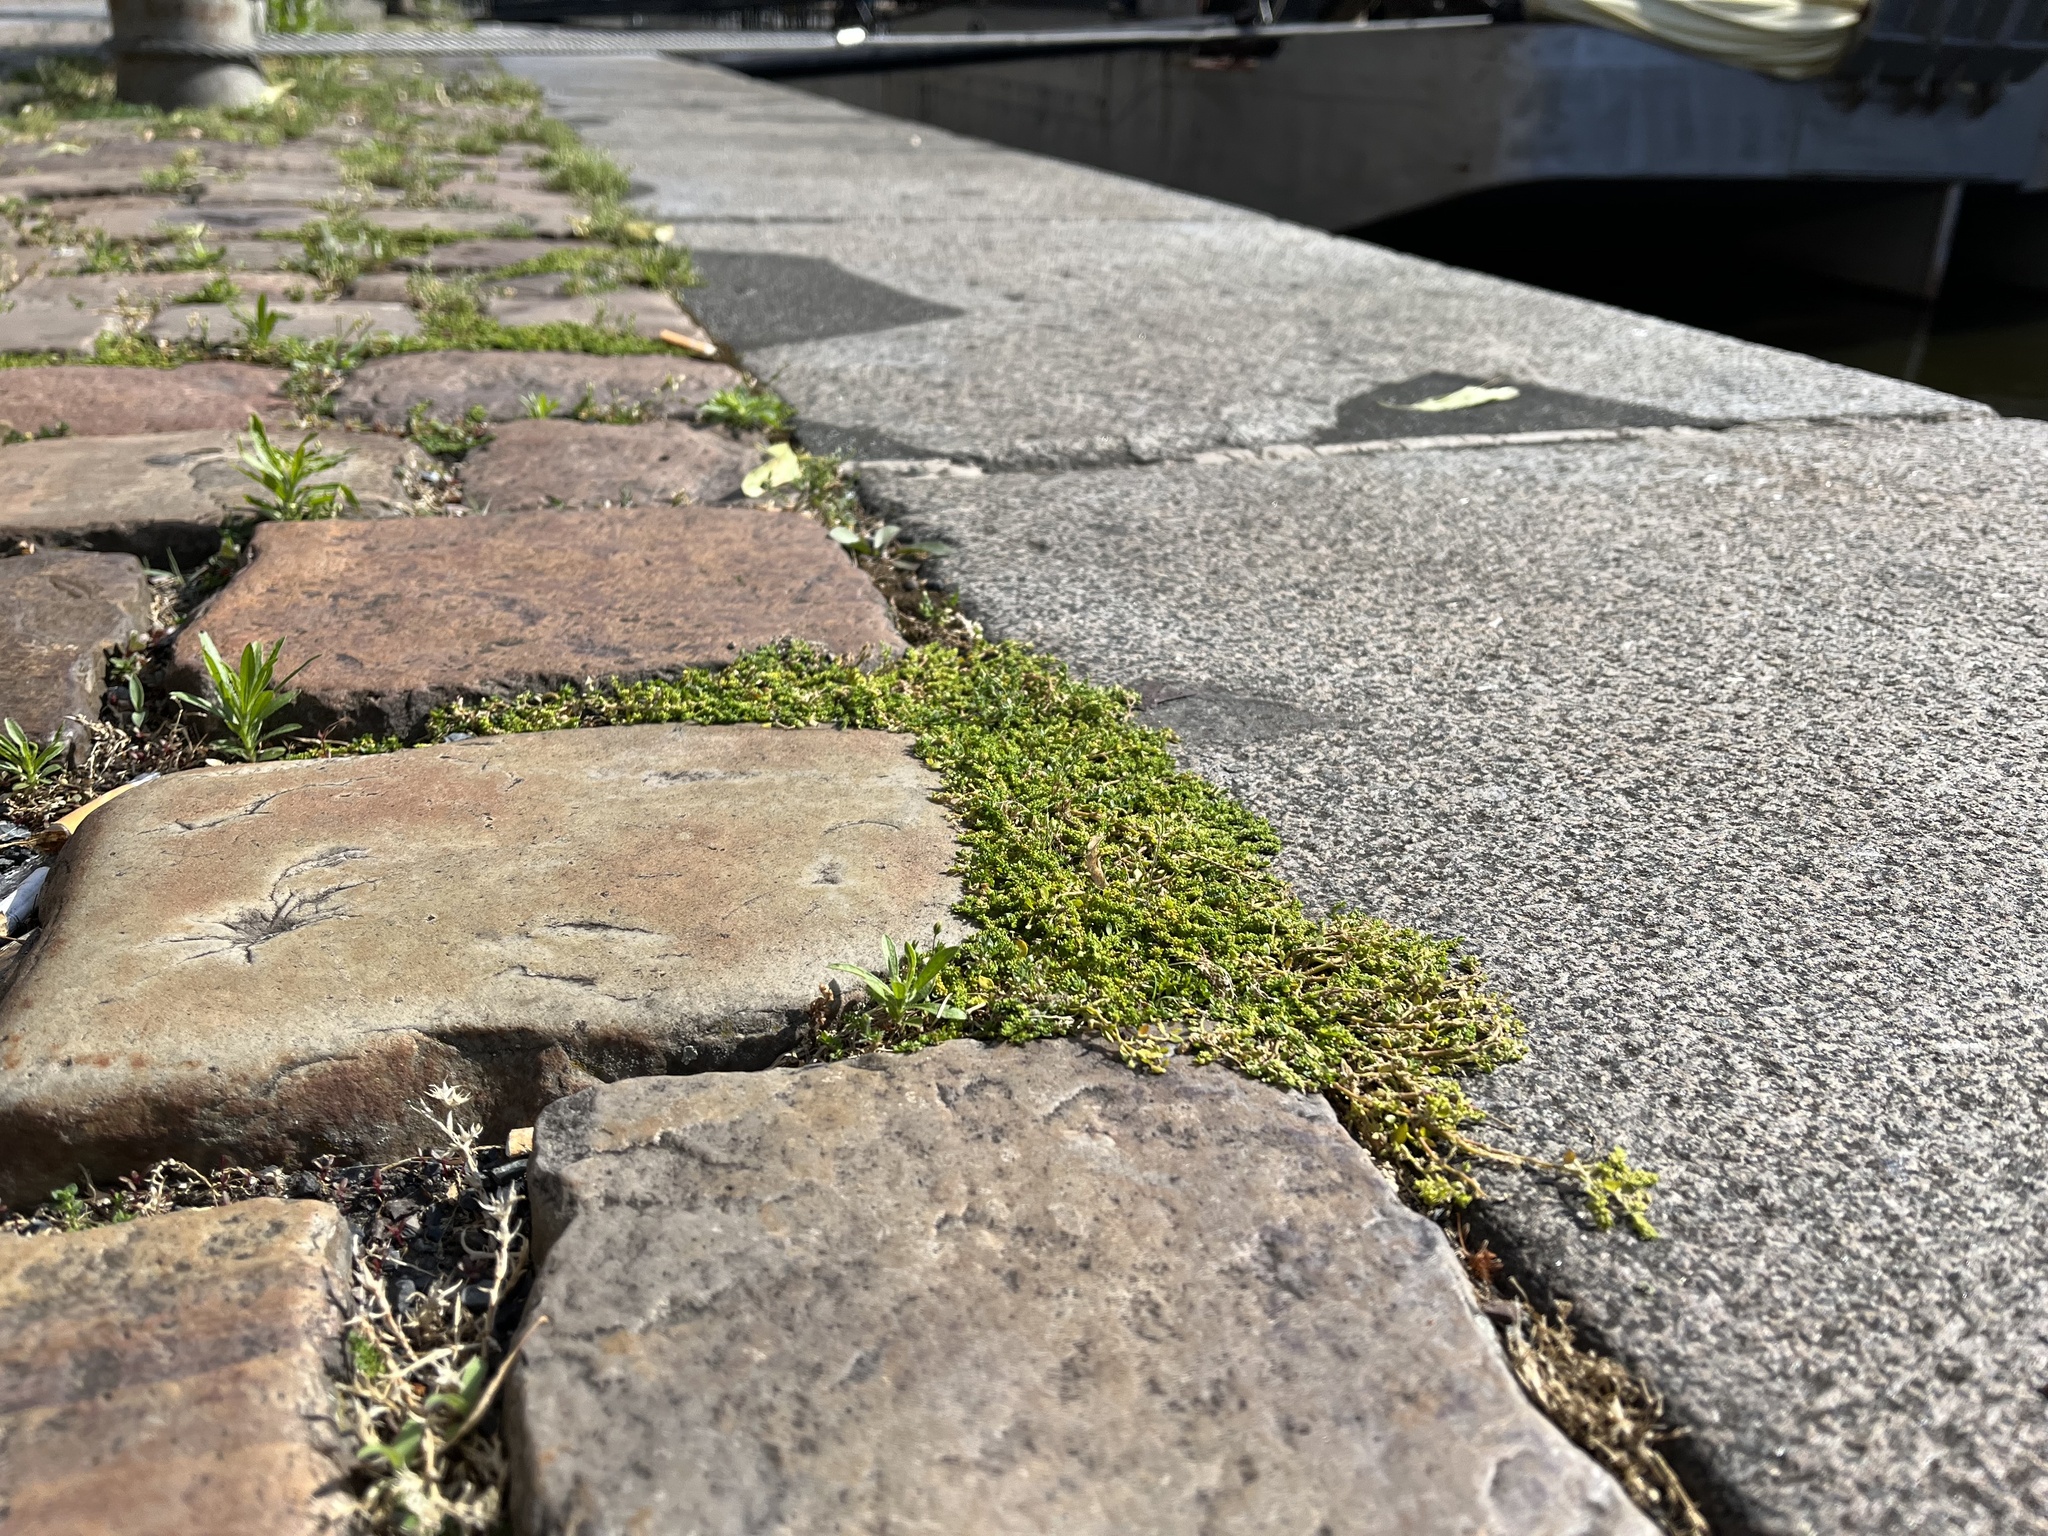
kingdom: Plantae
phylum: Tracheophyta
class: Magnoliopsida
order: Caryophyllales
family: Caryophyllaceae
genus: Herniaria
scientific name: Herniaria glabra
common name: Smooth rupturewort
